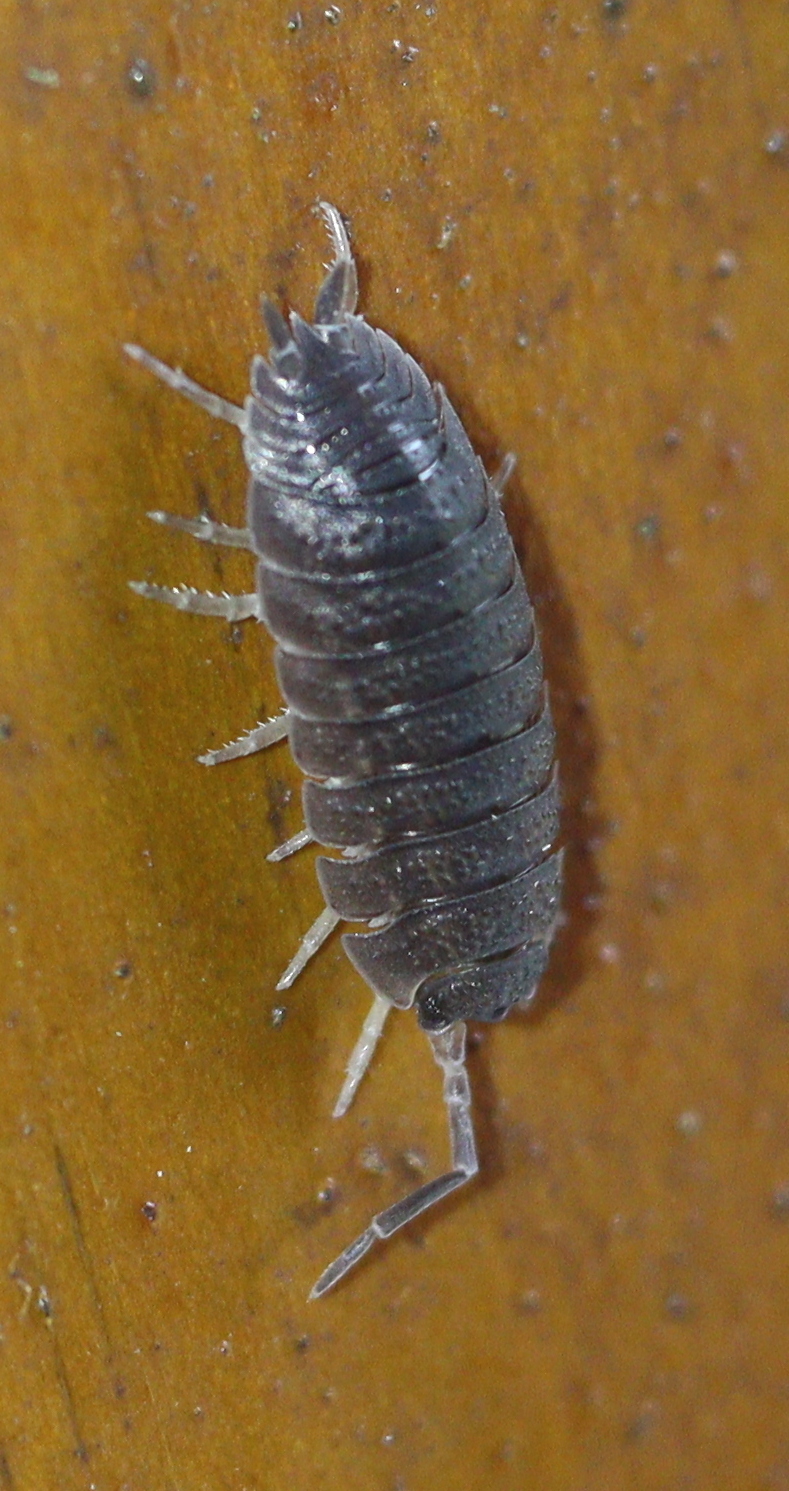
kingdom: Animalia
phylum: Arthropoda
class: Malacostraca
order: Isopoda
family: Porcellionidae
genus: Porcellio
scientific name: Porcellio scaber
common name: Common rough woodlouse
